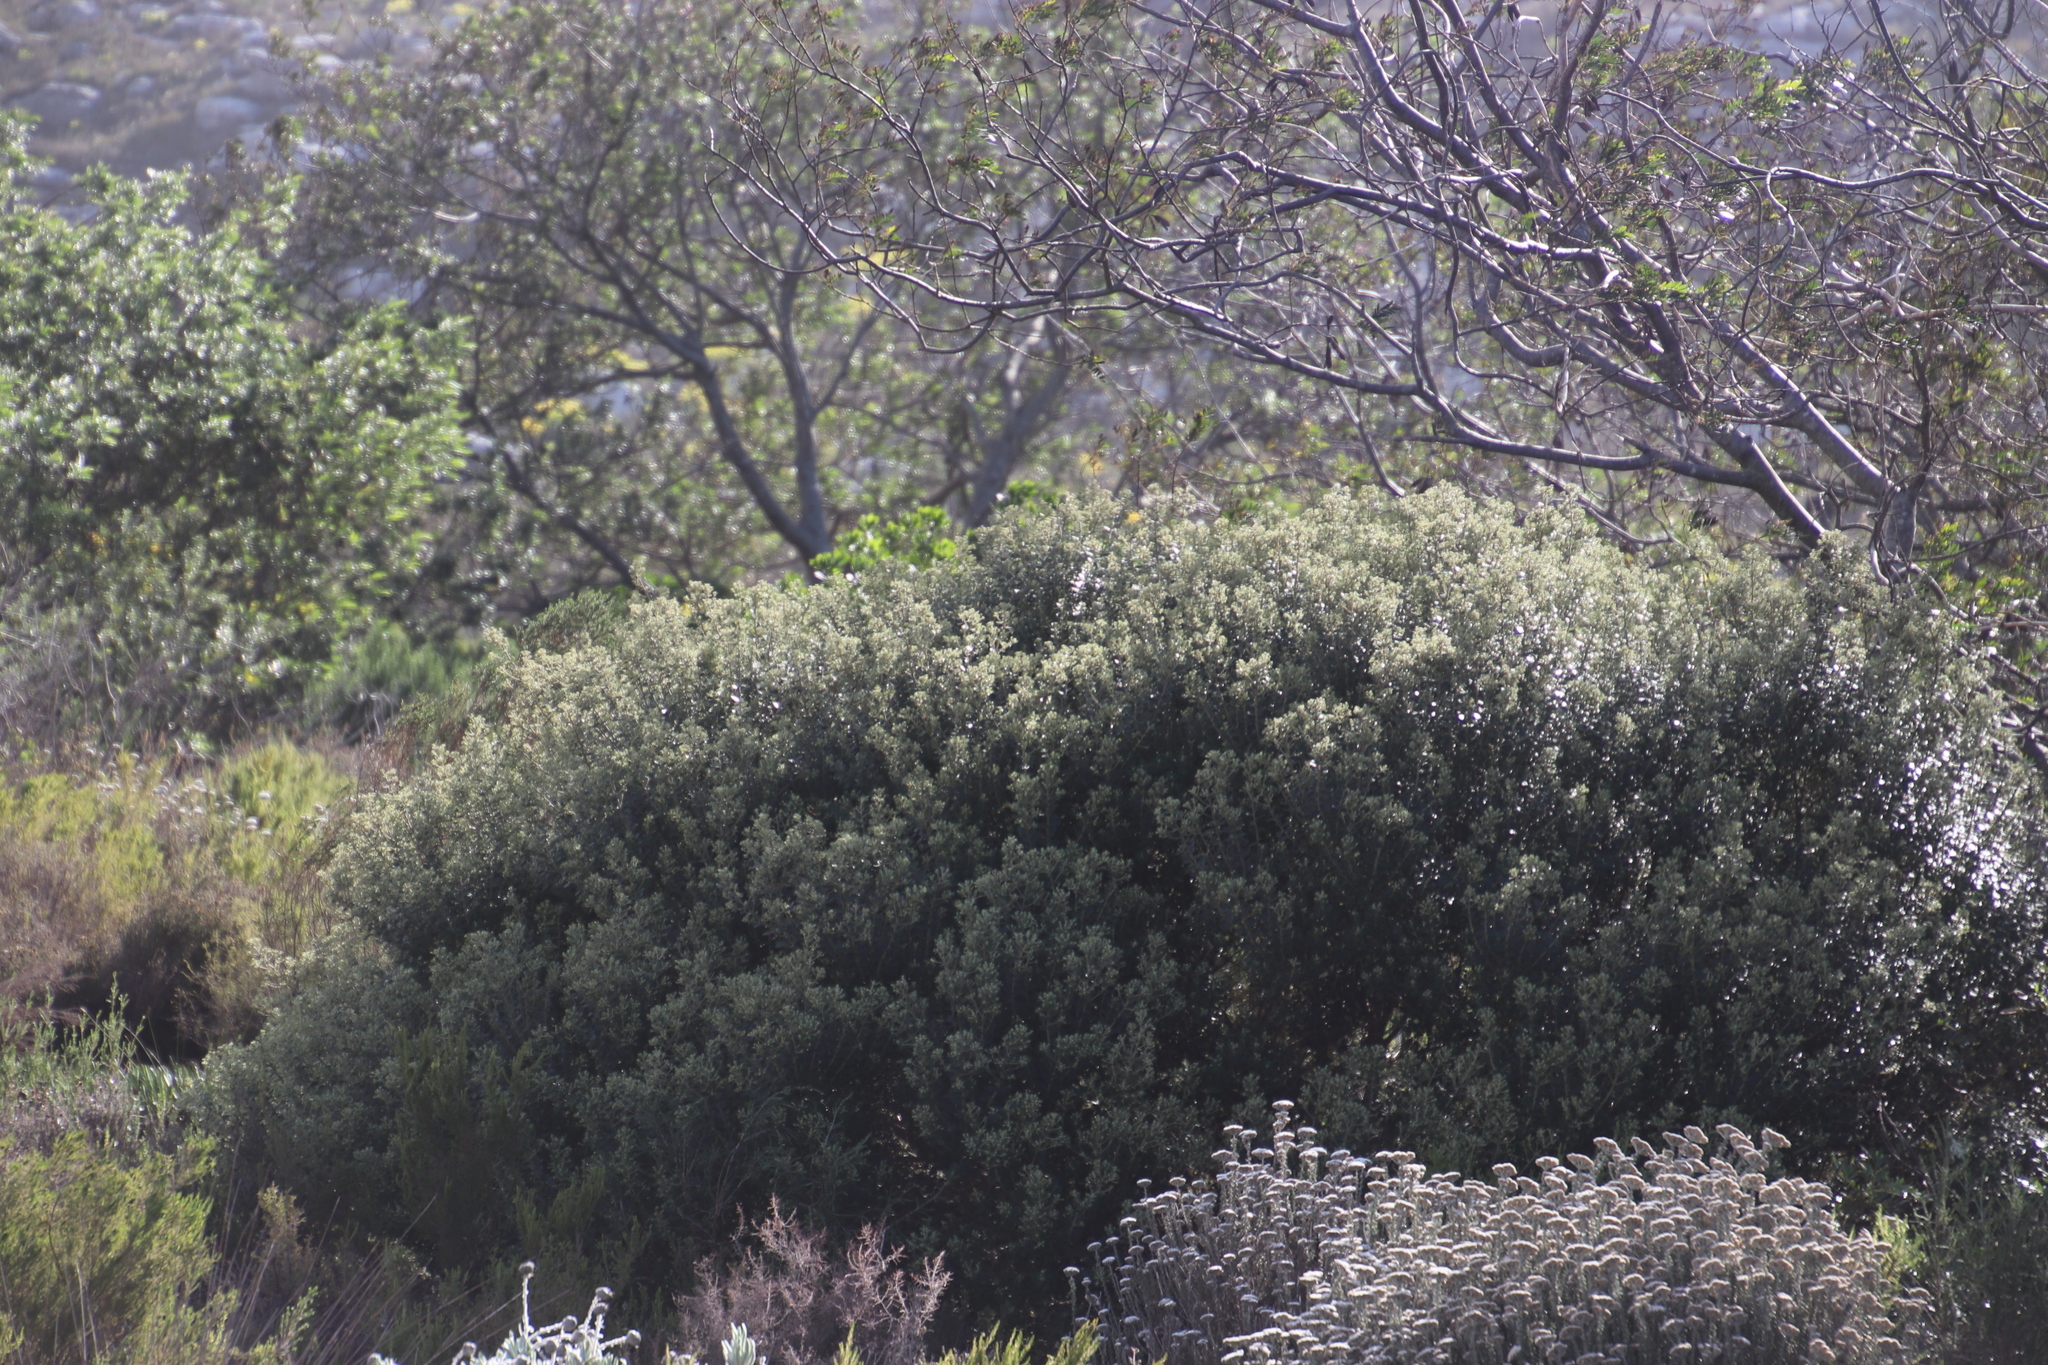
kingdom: Plantae
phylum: Tracheophyta
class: Magnoliopsida
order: Rosales
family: Rhamnaceae
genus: Phylica
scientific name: Phylica buxifolia
